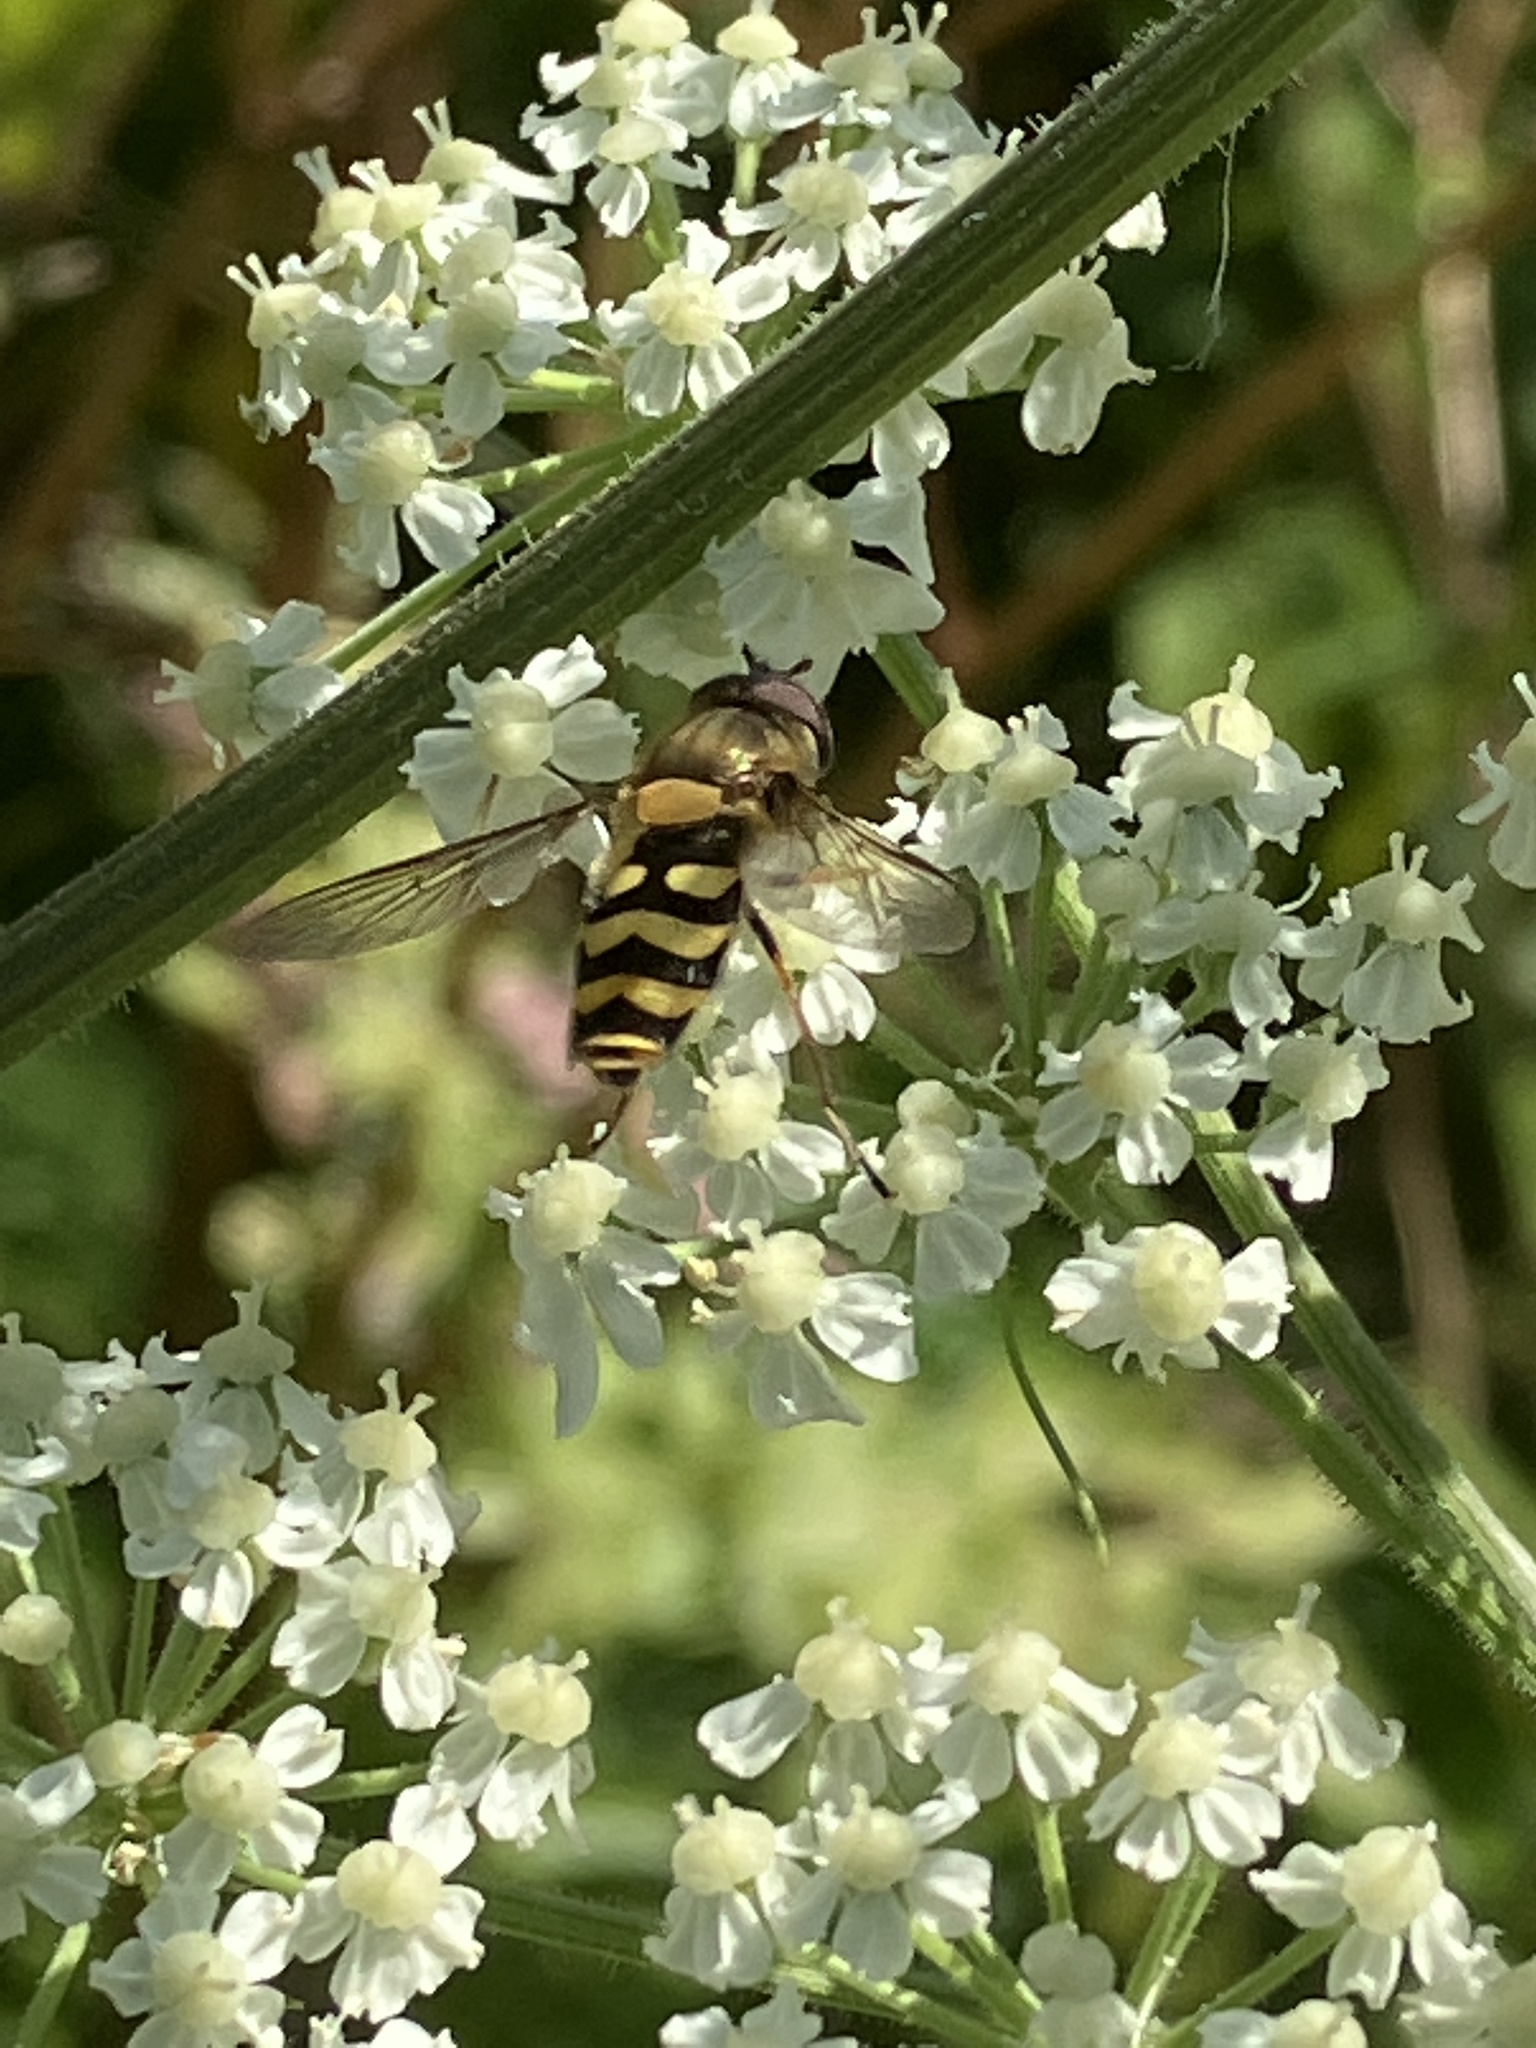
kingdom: Animalia
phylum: Arthropoda
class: Insecta
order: Diptera
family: Syrphidae
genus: Syrphus
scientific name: Syrphus
